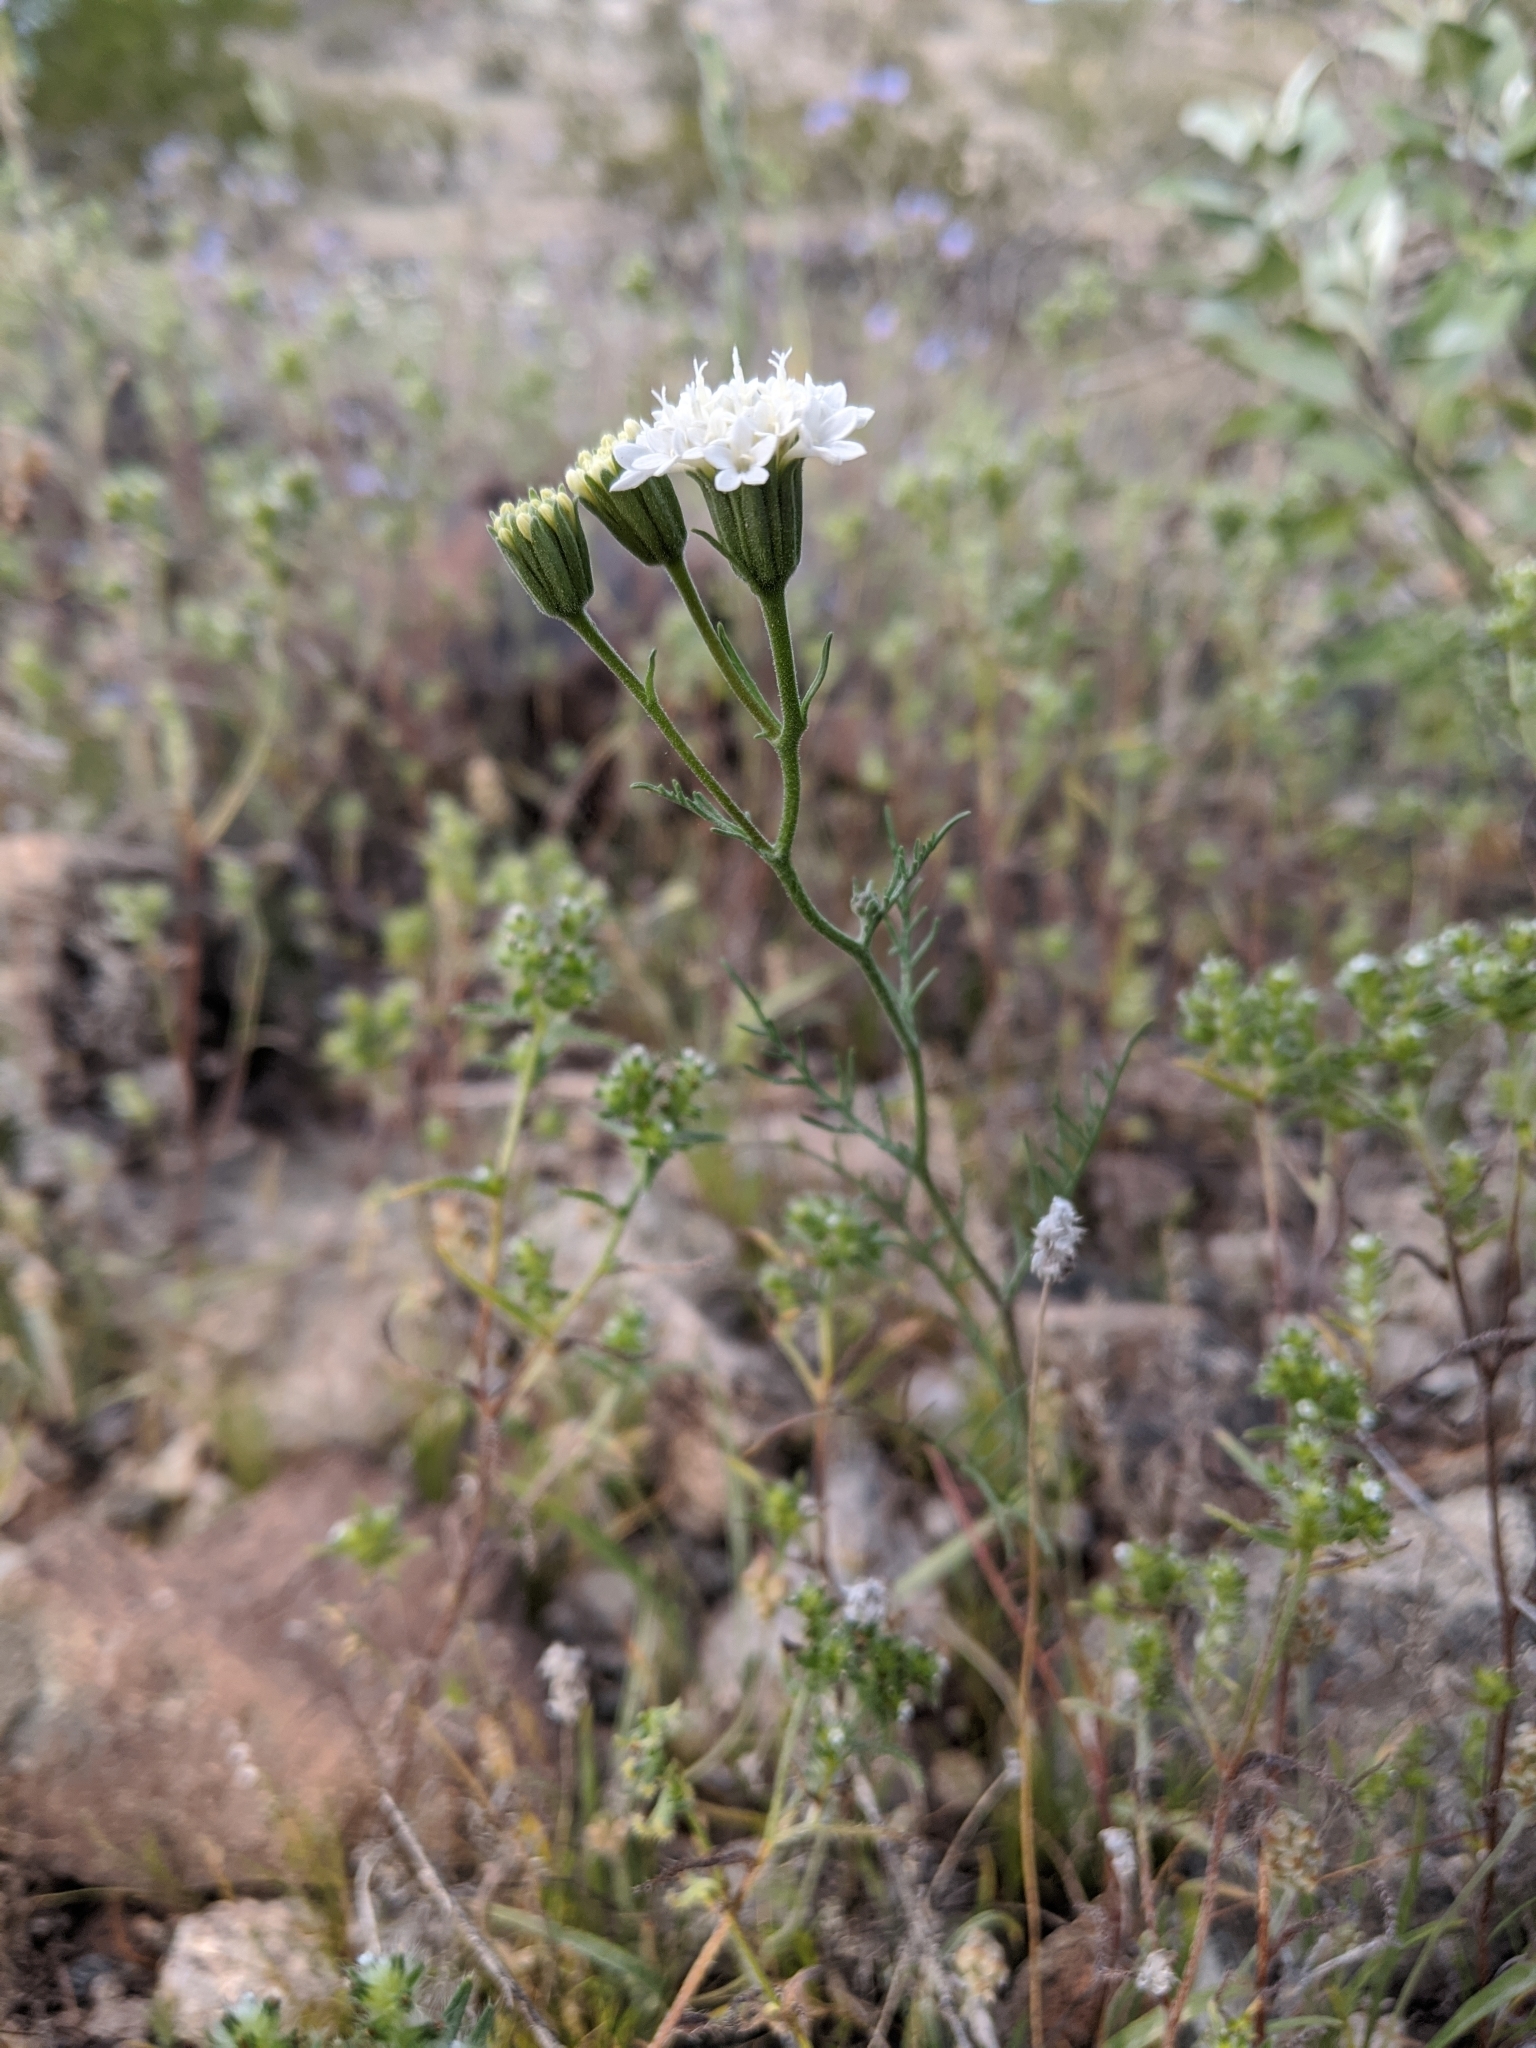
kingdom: Plantae
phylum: Tracheophyta
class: Magnoliopsida
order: Asterales
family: Asteraceae
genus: Chaenactis
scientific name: Chaenactis stevioides
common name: Desert pincushion
